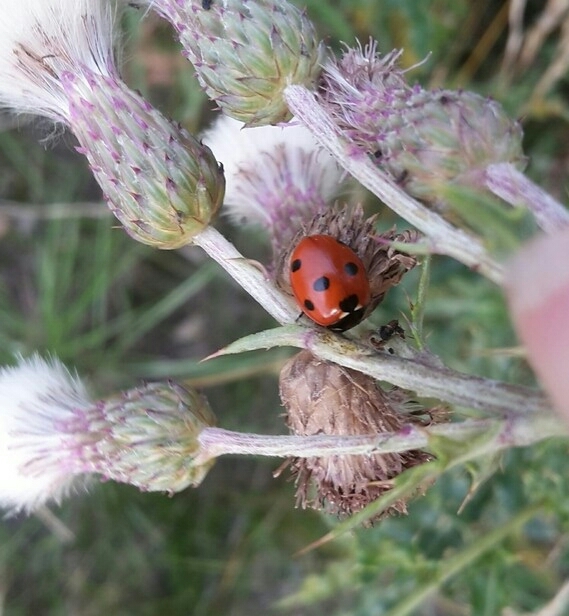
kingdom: Animalia
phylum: Arthropoda
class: Insecta
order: Coleoptera
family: Coccinellidae
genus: Coccinella
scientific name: Coccinella septempunctata
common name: Sevenspotted lady beetle
